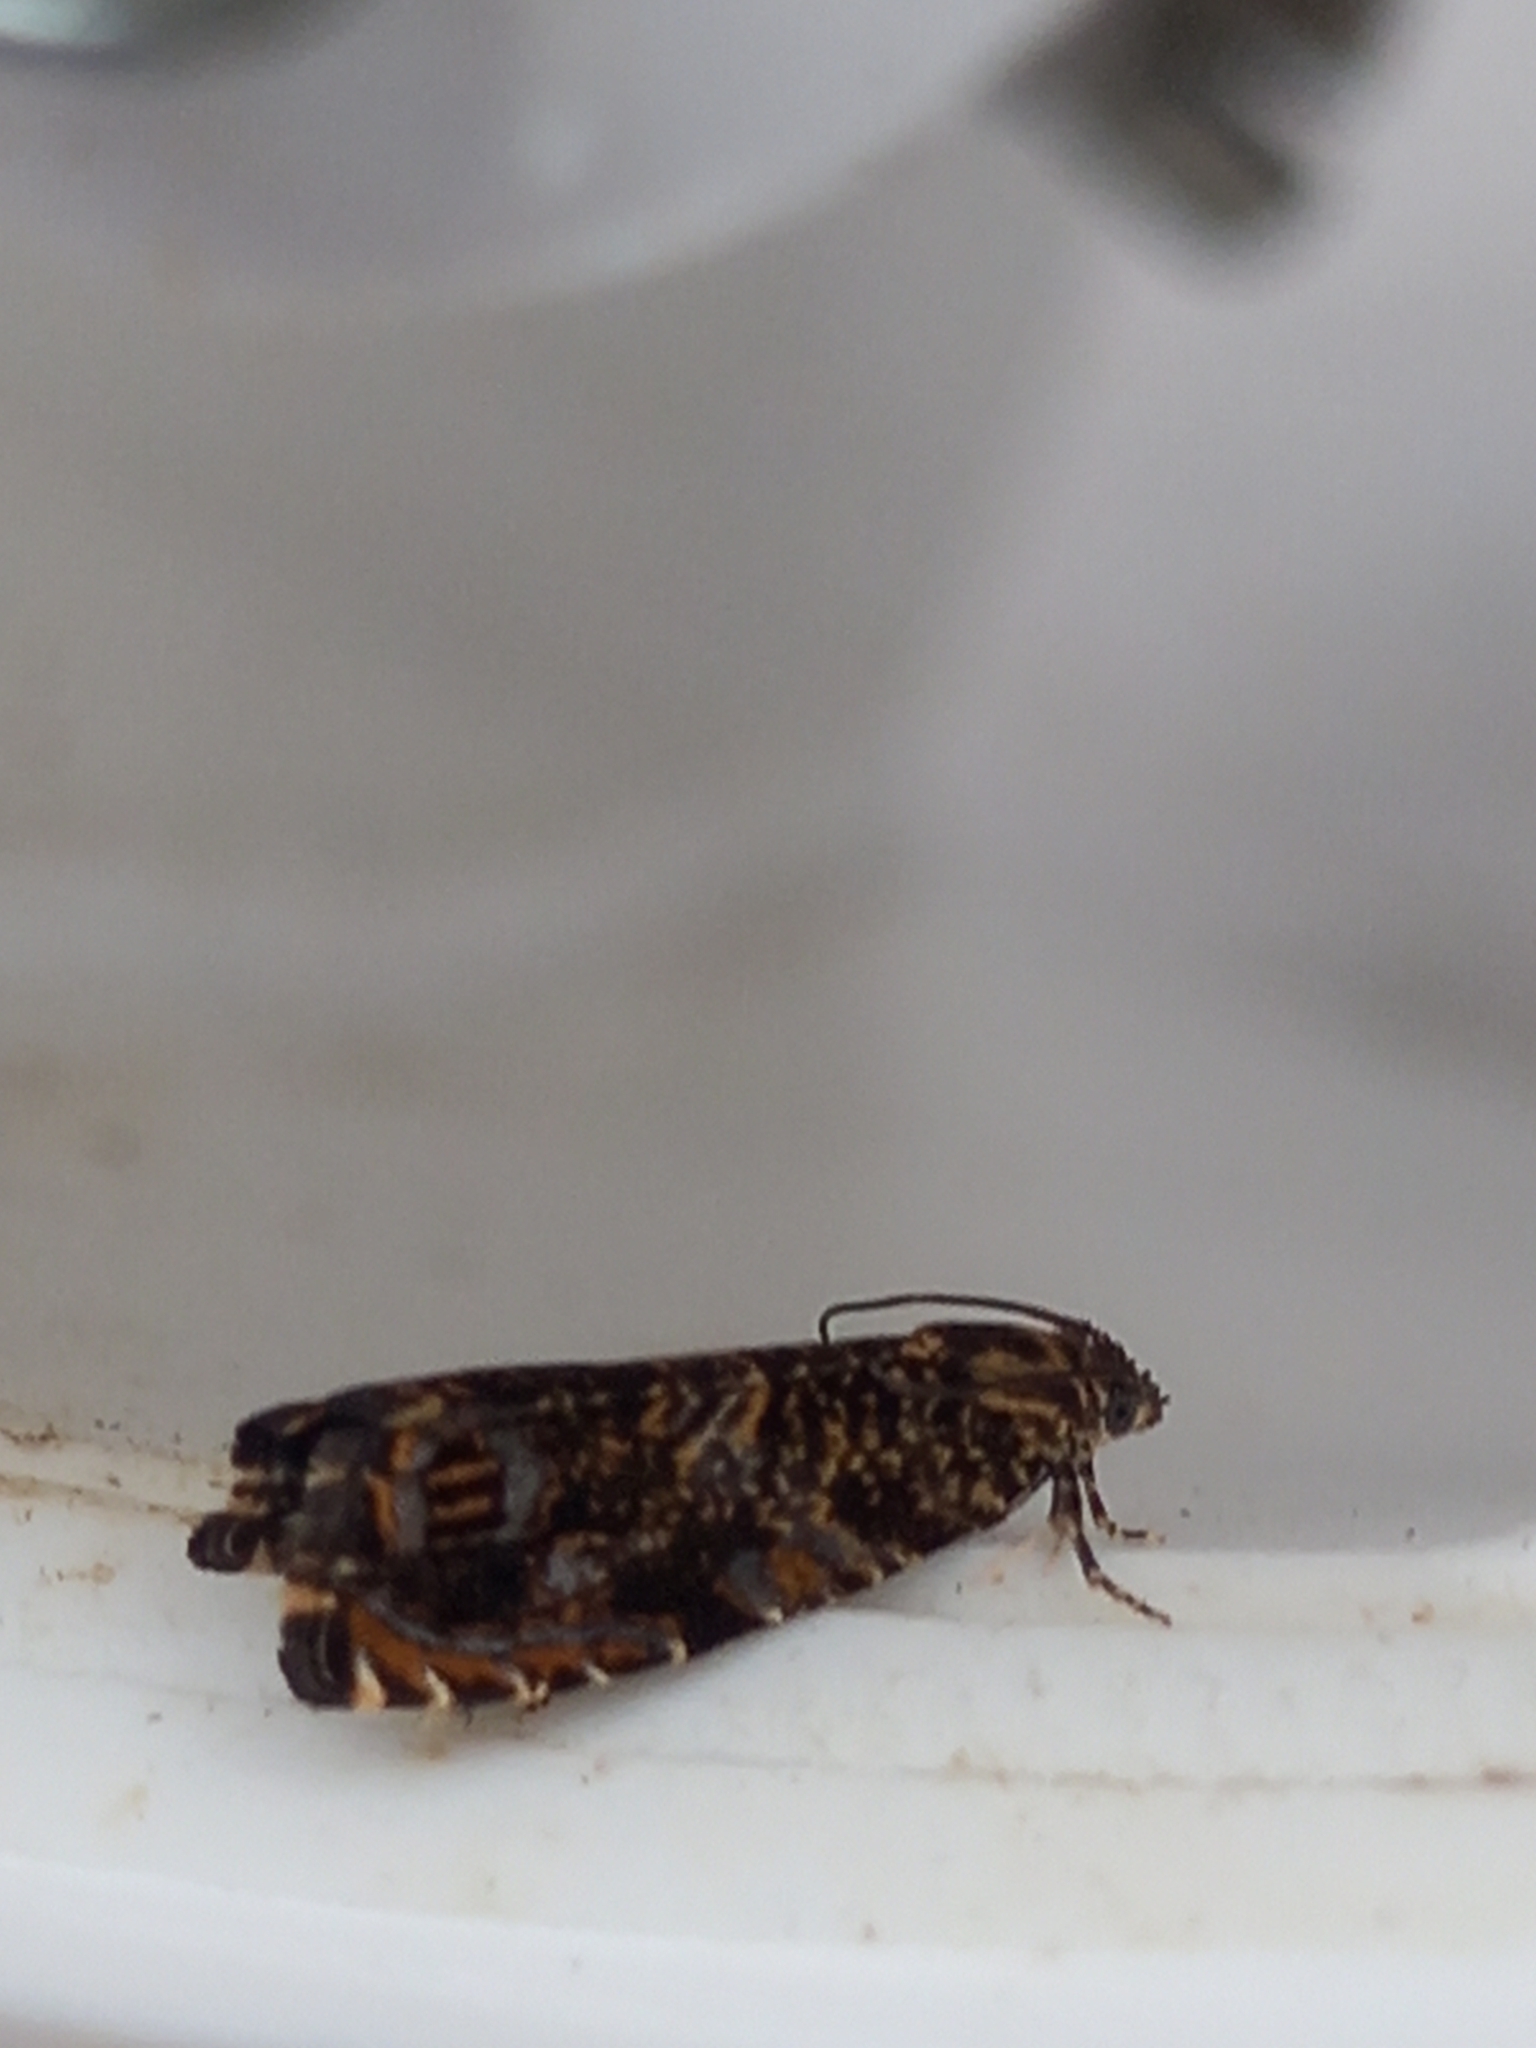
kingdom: Animalia
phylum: Arthropoda
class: Insecta
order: Lepidoptera
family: Tortricidae
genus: Enarmonia
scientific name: Enarmonia formosana
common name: Cherry bark tortrix
